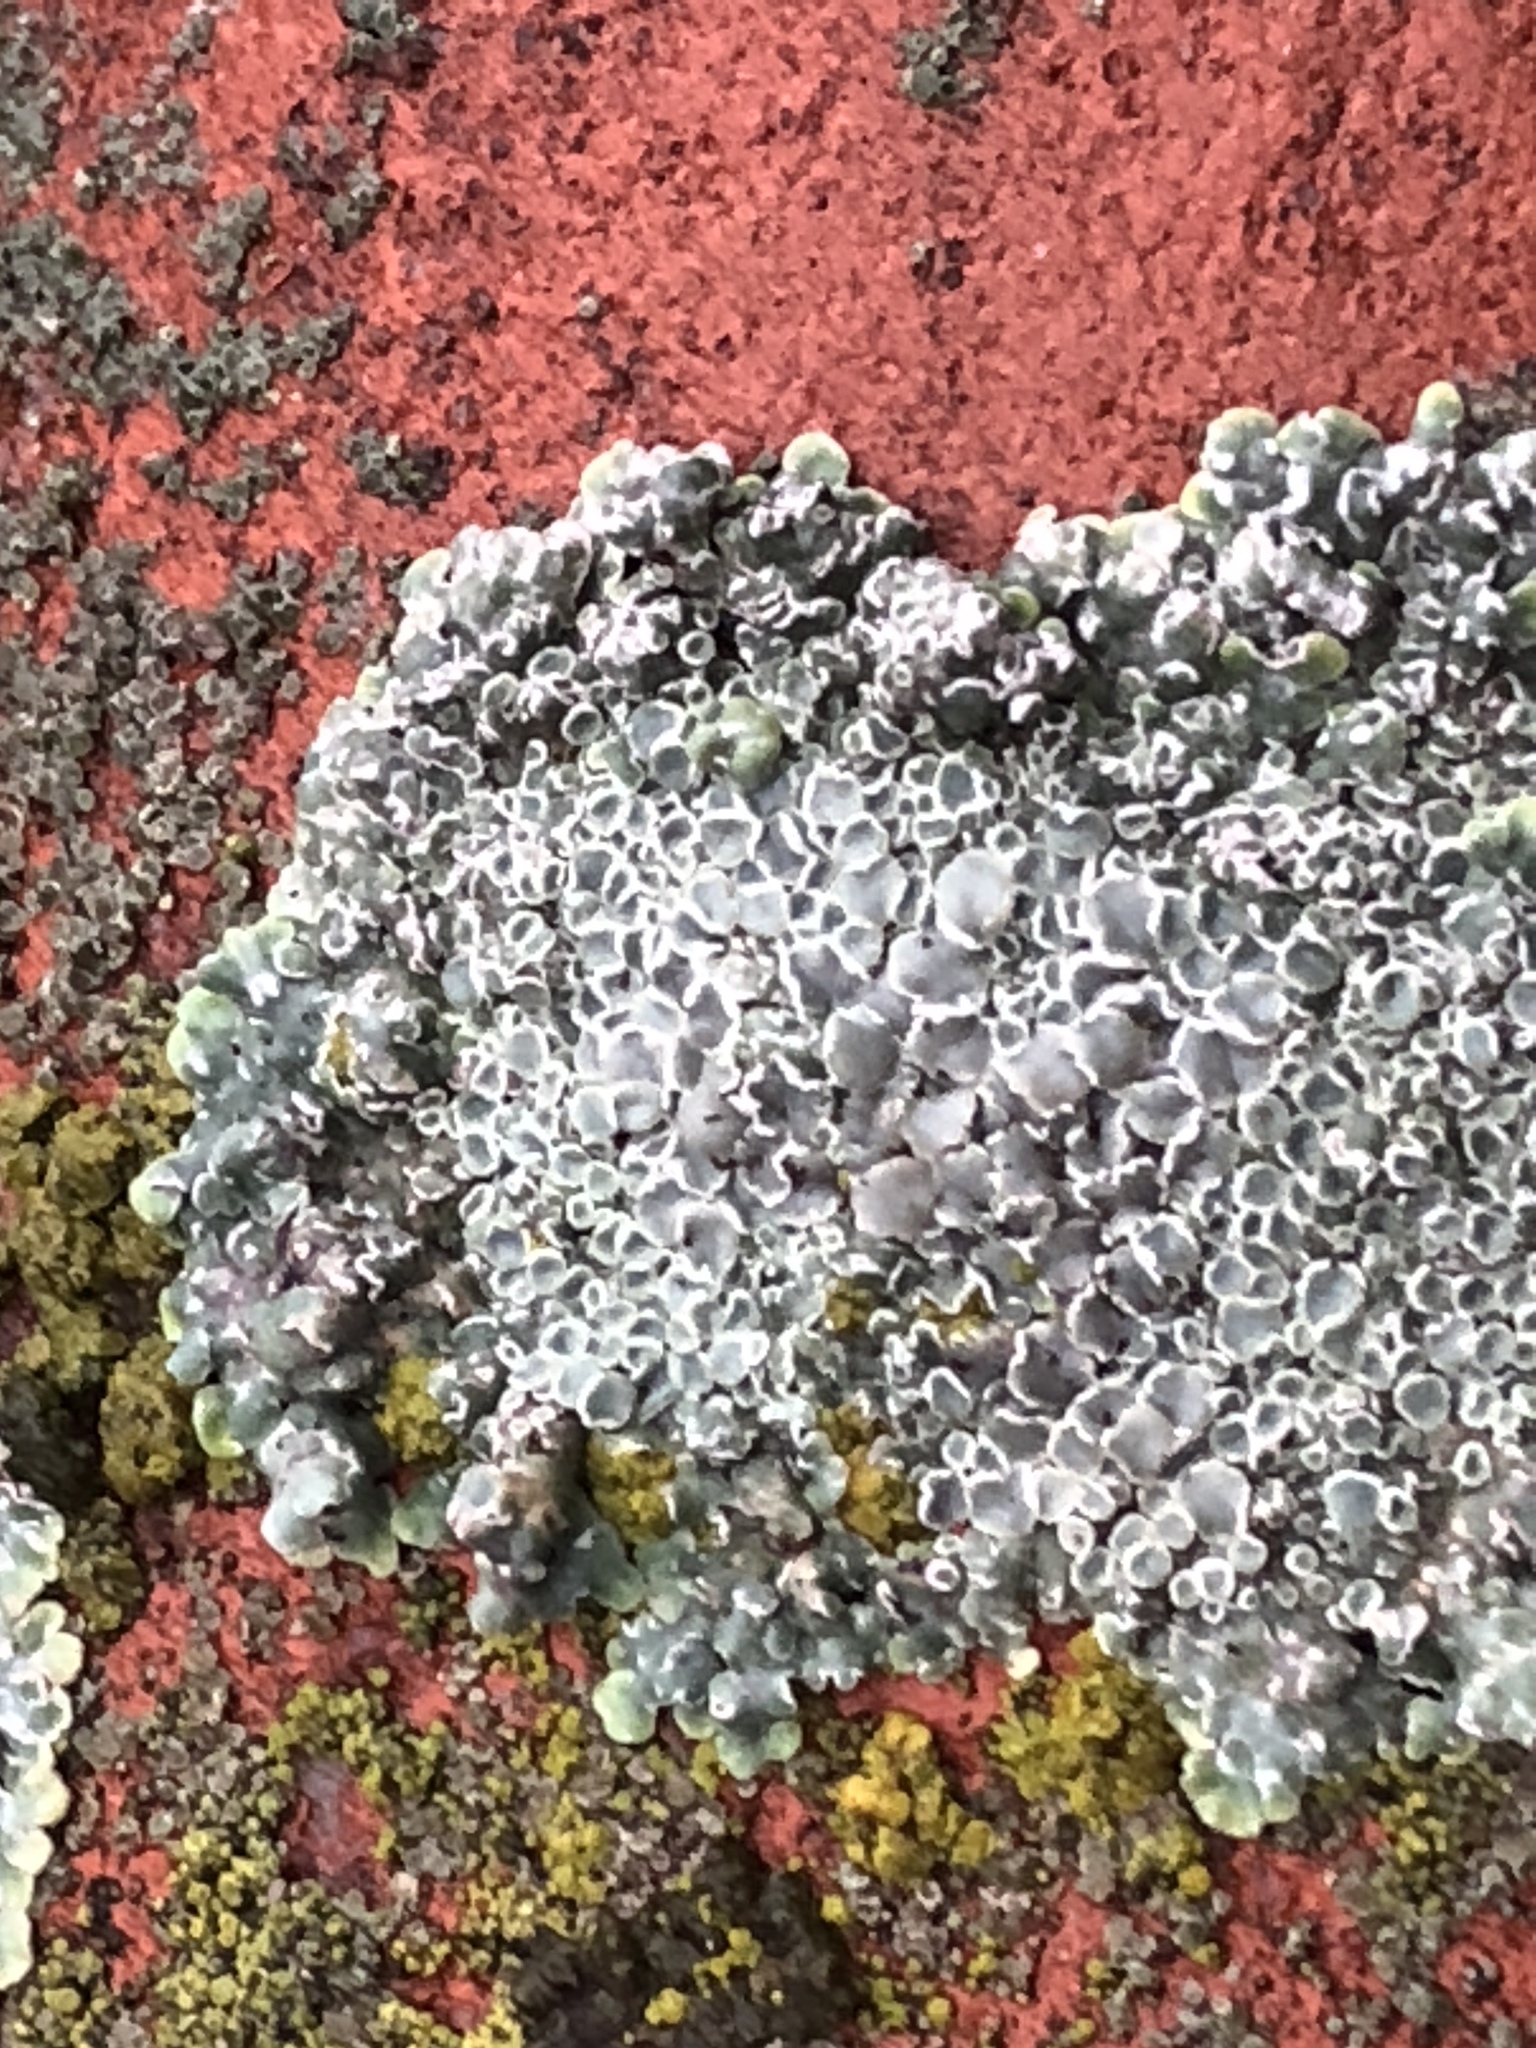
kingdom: Fungi
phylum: Ascomycota
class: Lecanoromycetes
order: Lecanorales
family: Lecanoraceae
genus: Protoparmeliopsis
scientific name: Protoparmeliopsis muralis
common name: Stonewall rim lichen
